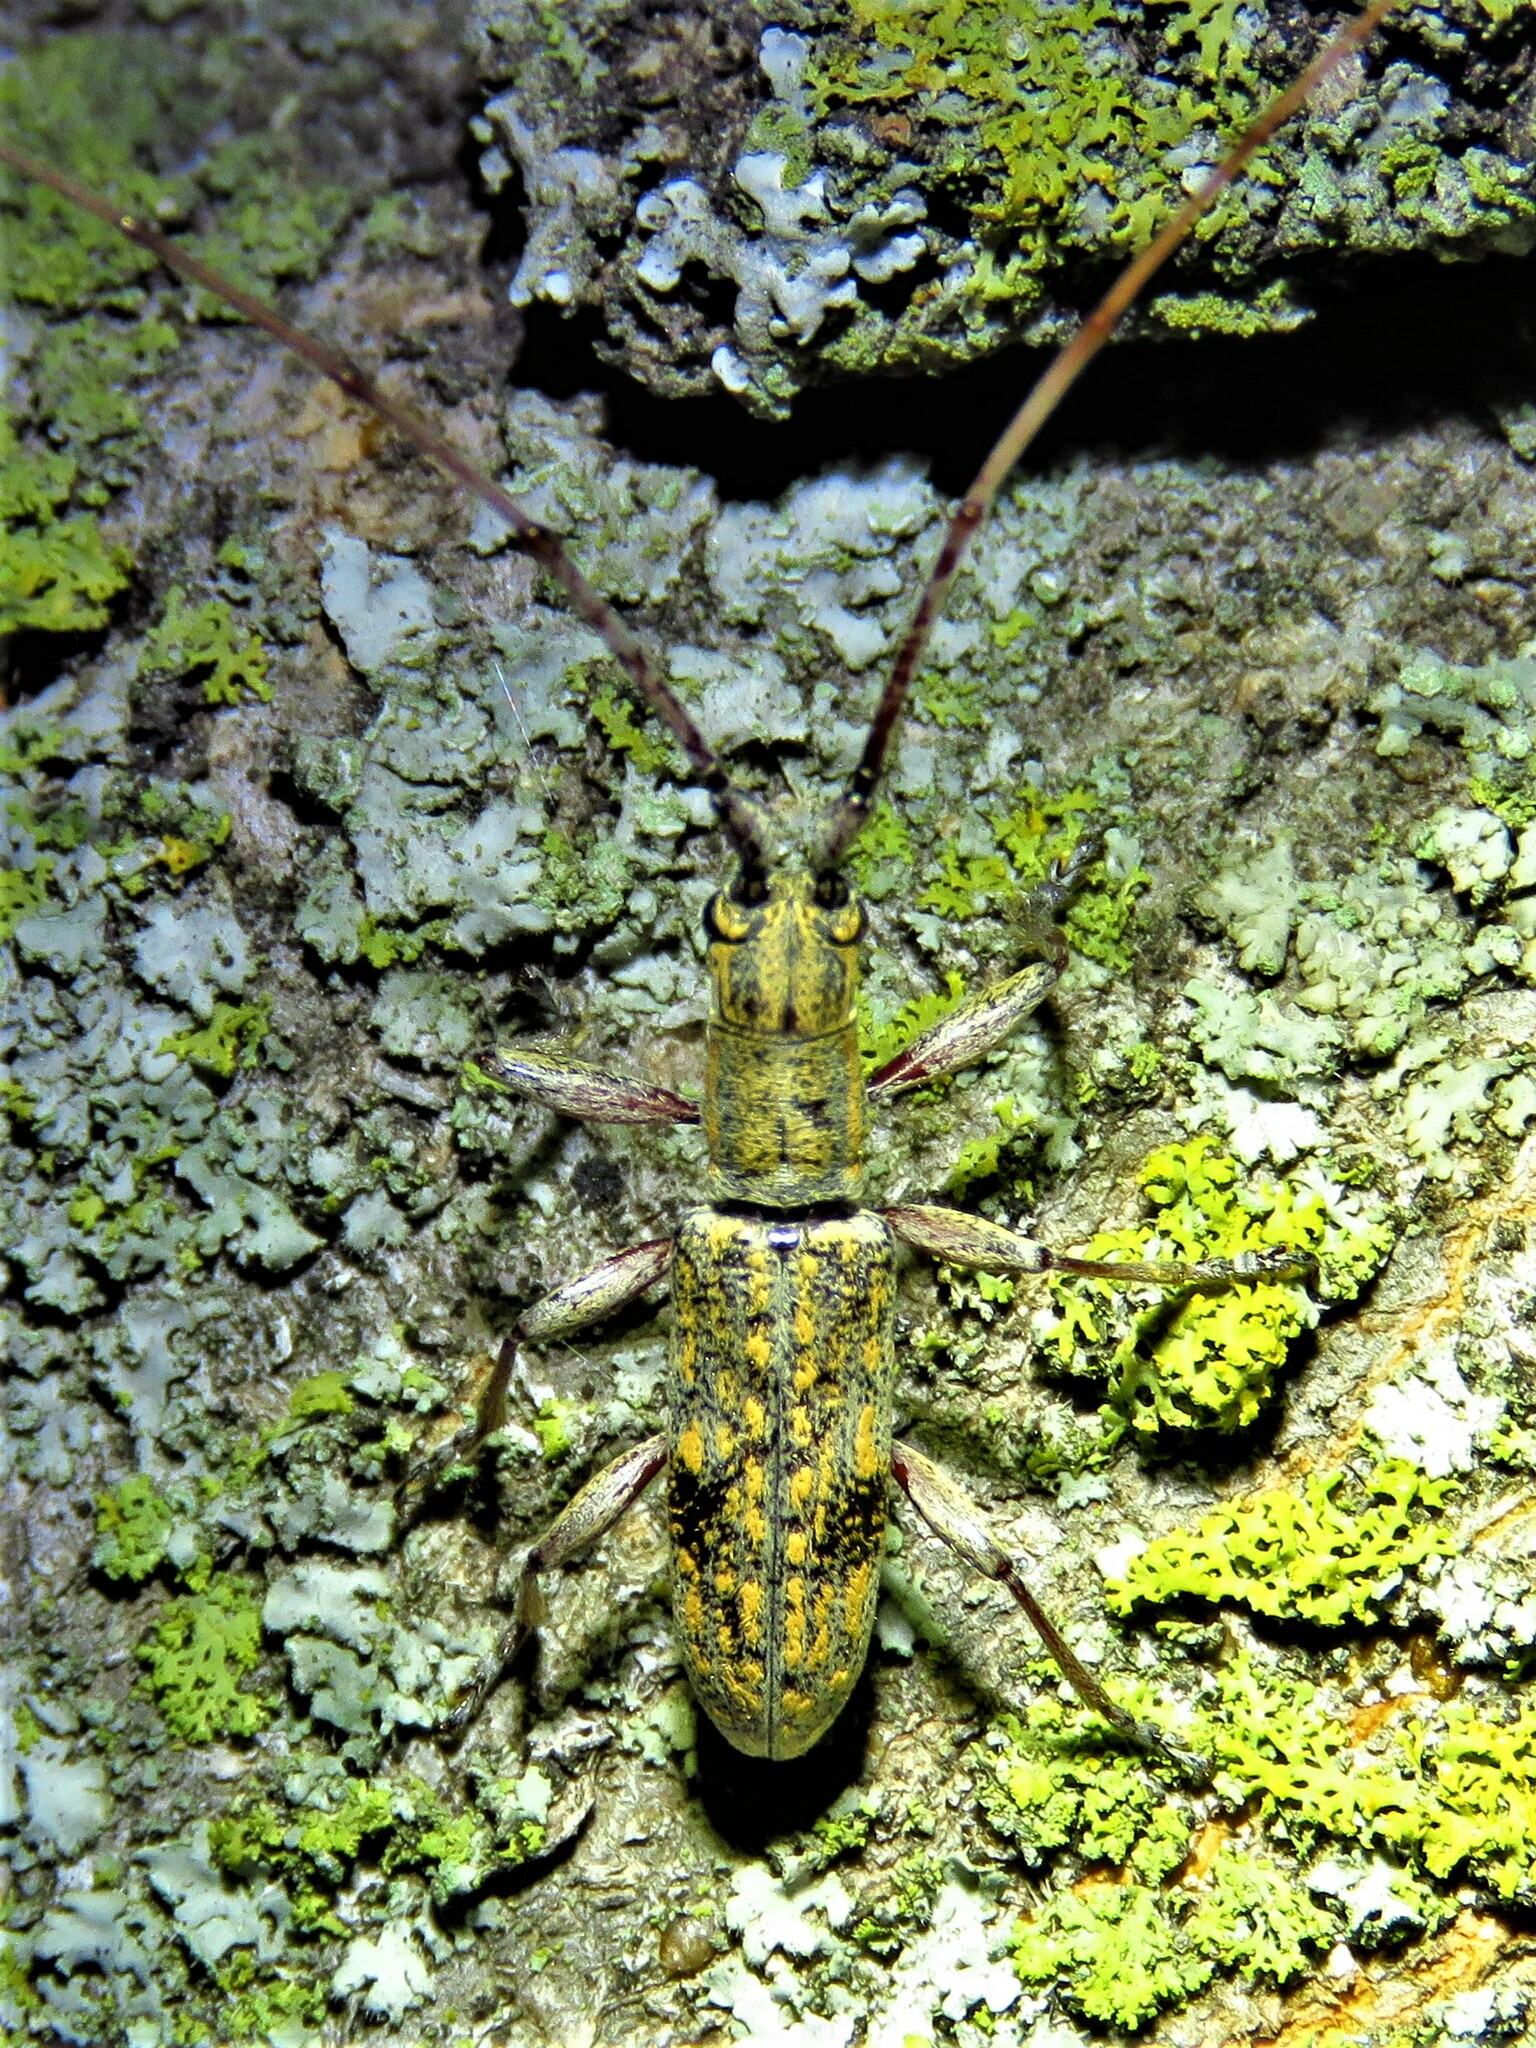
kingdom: Animalia
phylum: Arthropoda
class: Insecta
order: Coleoptera
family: Cerambycidae
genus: Dorcaschema
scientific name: Dorcaschema alternatum
